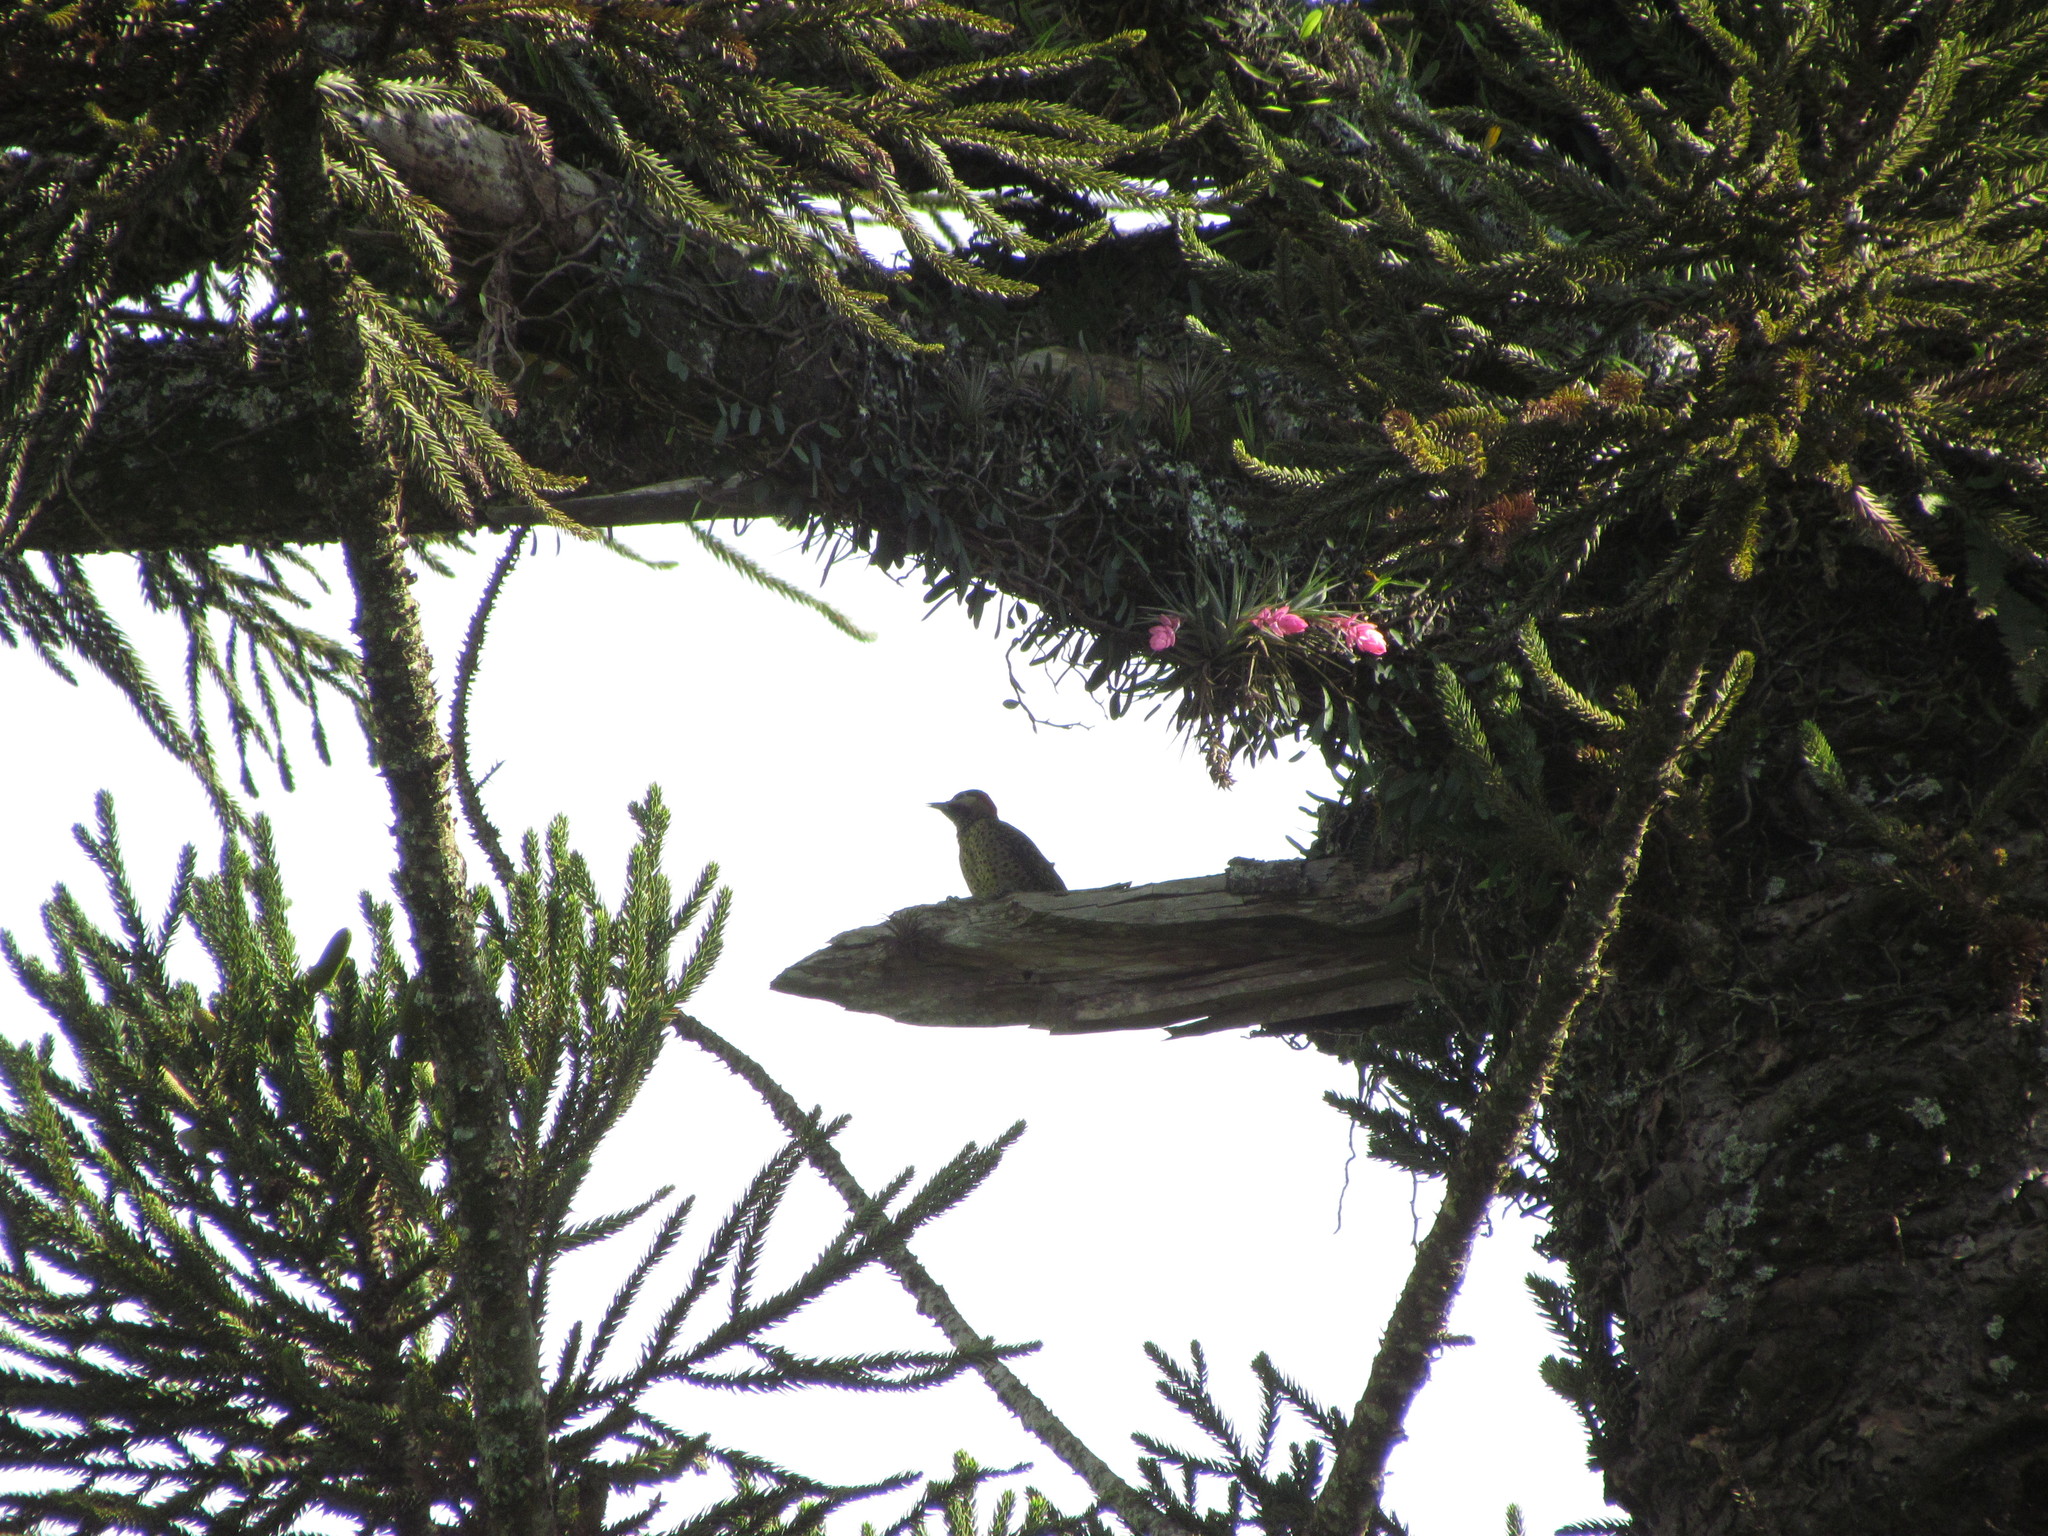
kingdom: Animalia
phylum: Chordata
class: Aves
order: Piciformes
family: Picidae
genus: Colaptes
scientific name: Colaptes melanochloros
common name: Green-barred woodpecker
